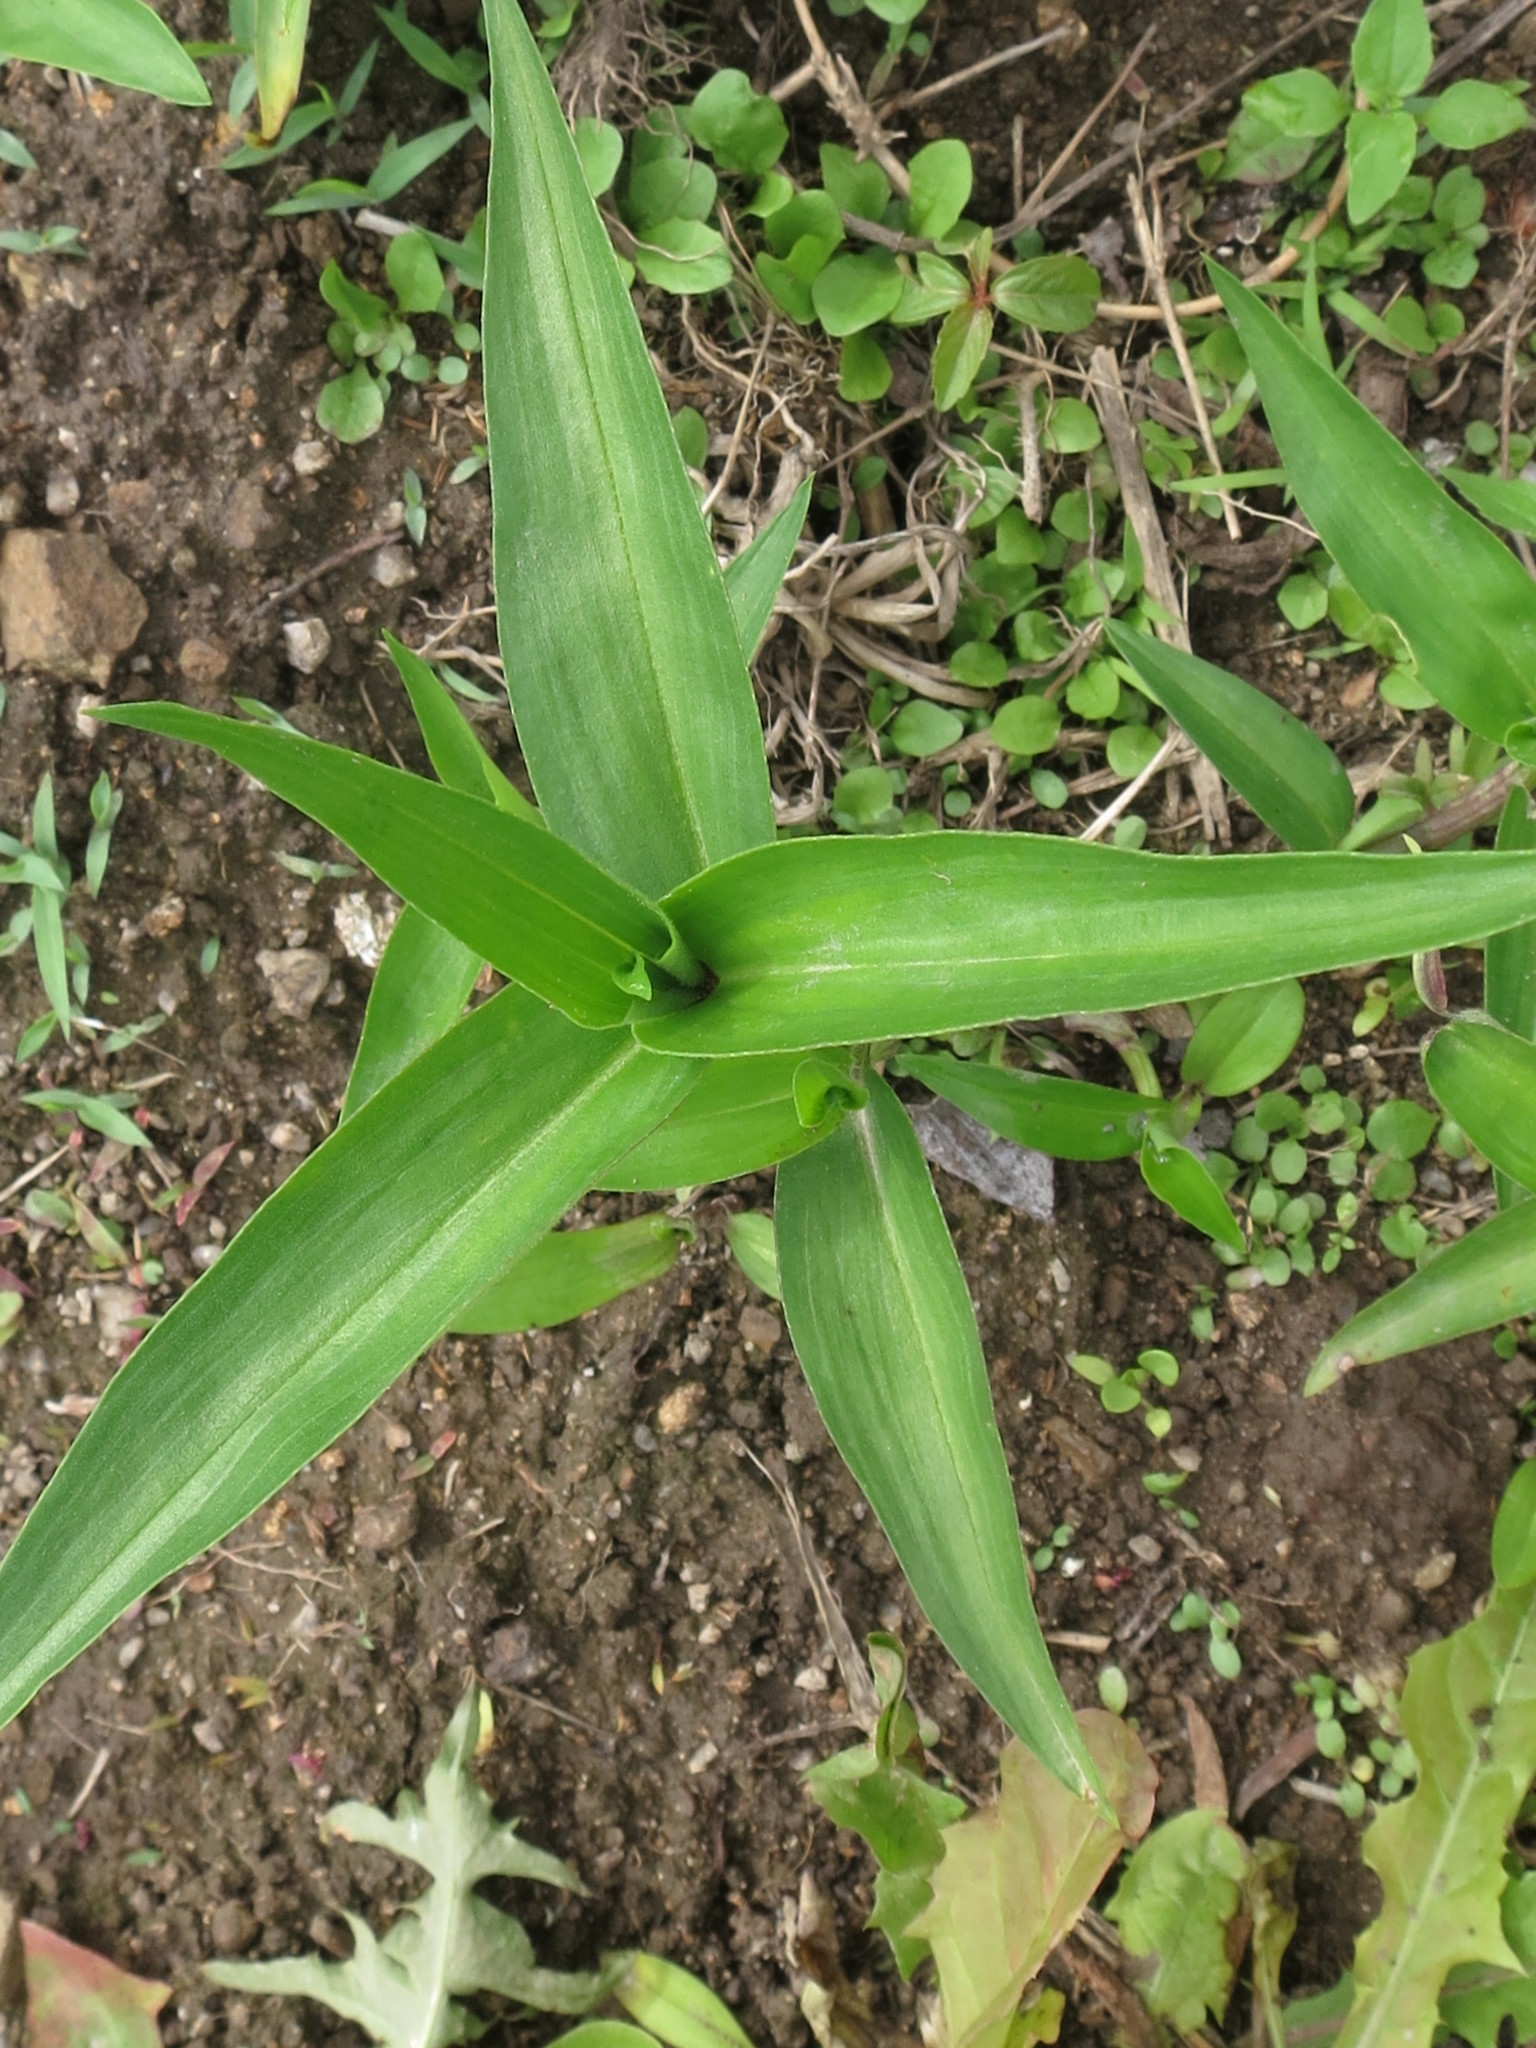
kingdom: Plantae
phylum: Tracheophyta
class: Liliopsida
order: Commelinales
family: Commelinaceae
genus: Commelina
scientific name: Commelina communis
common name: Asiatic dayflower
